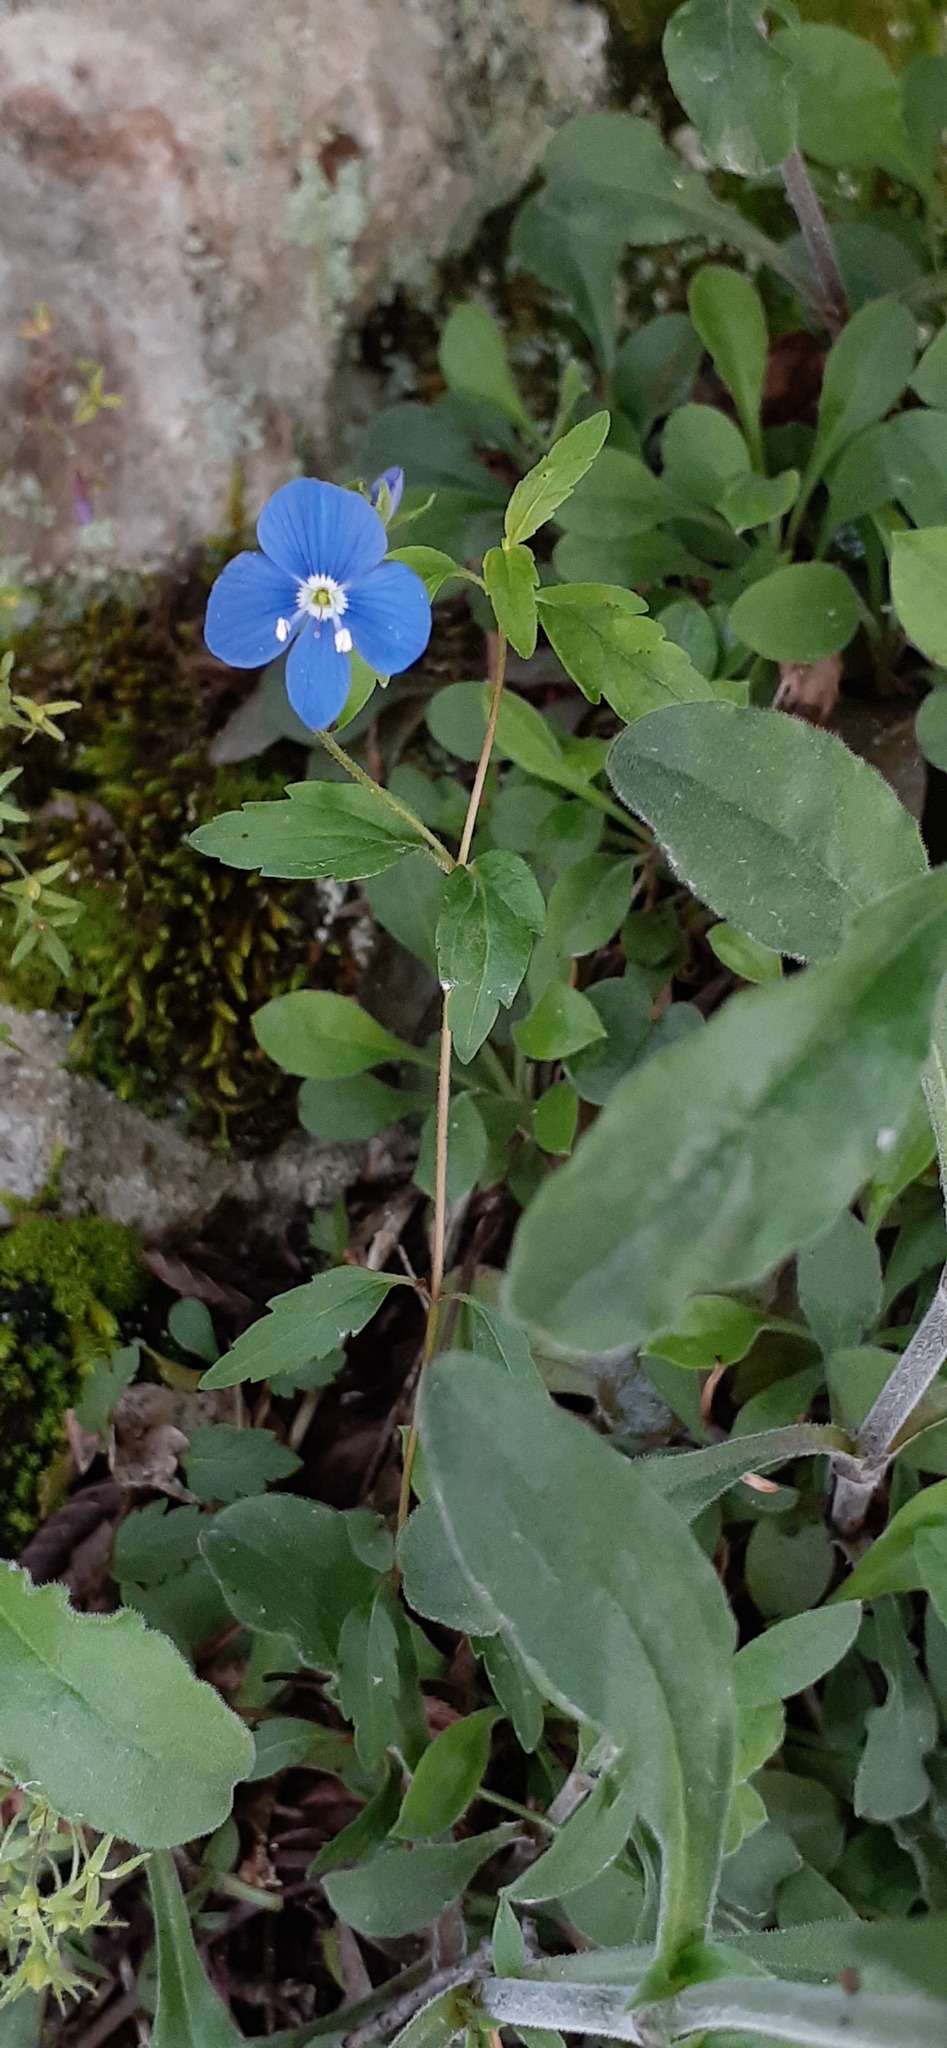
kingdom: Plantae
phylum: Tracheophyta
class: Magnoliopsida
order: Lamiales
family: Plantaginaceae
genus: Veronica
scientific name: Veronica
